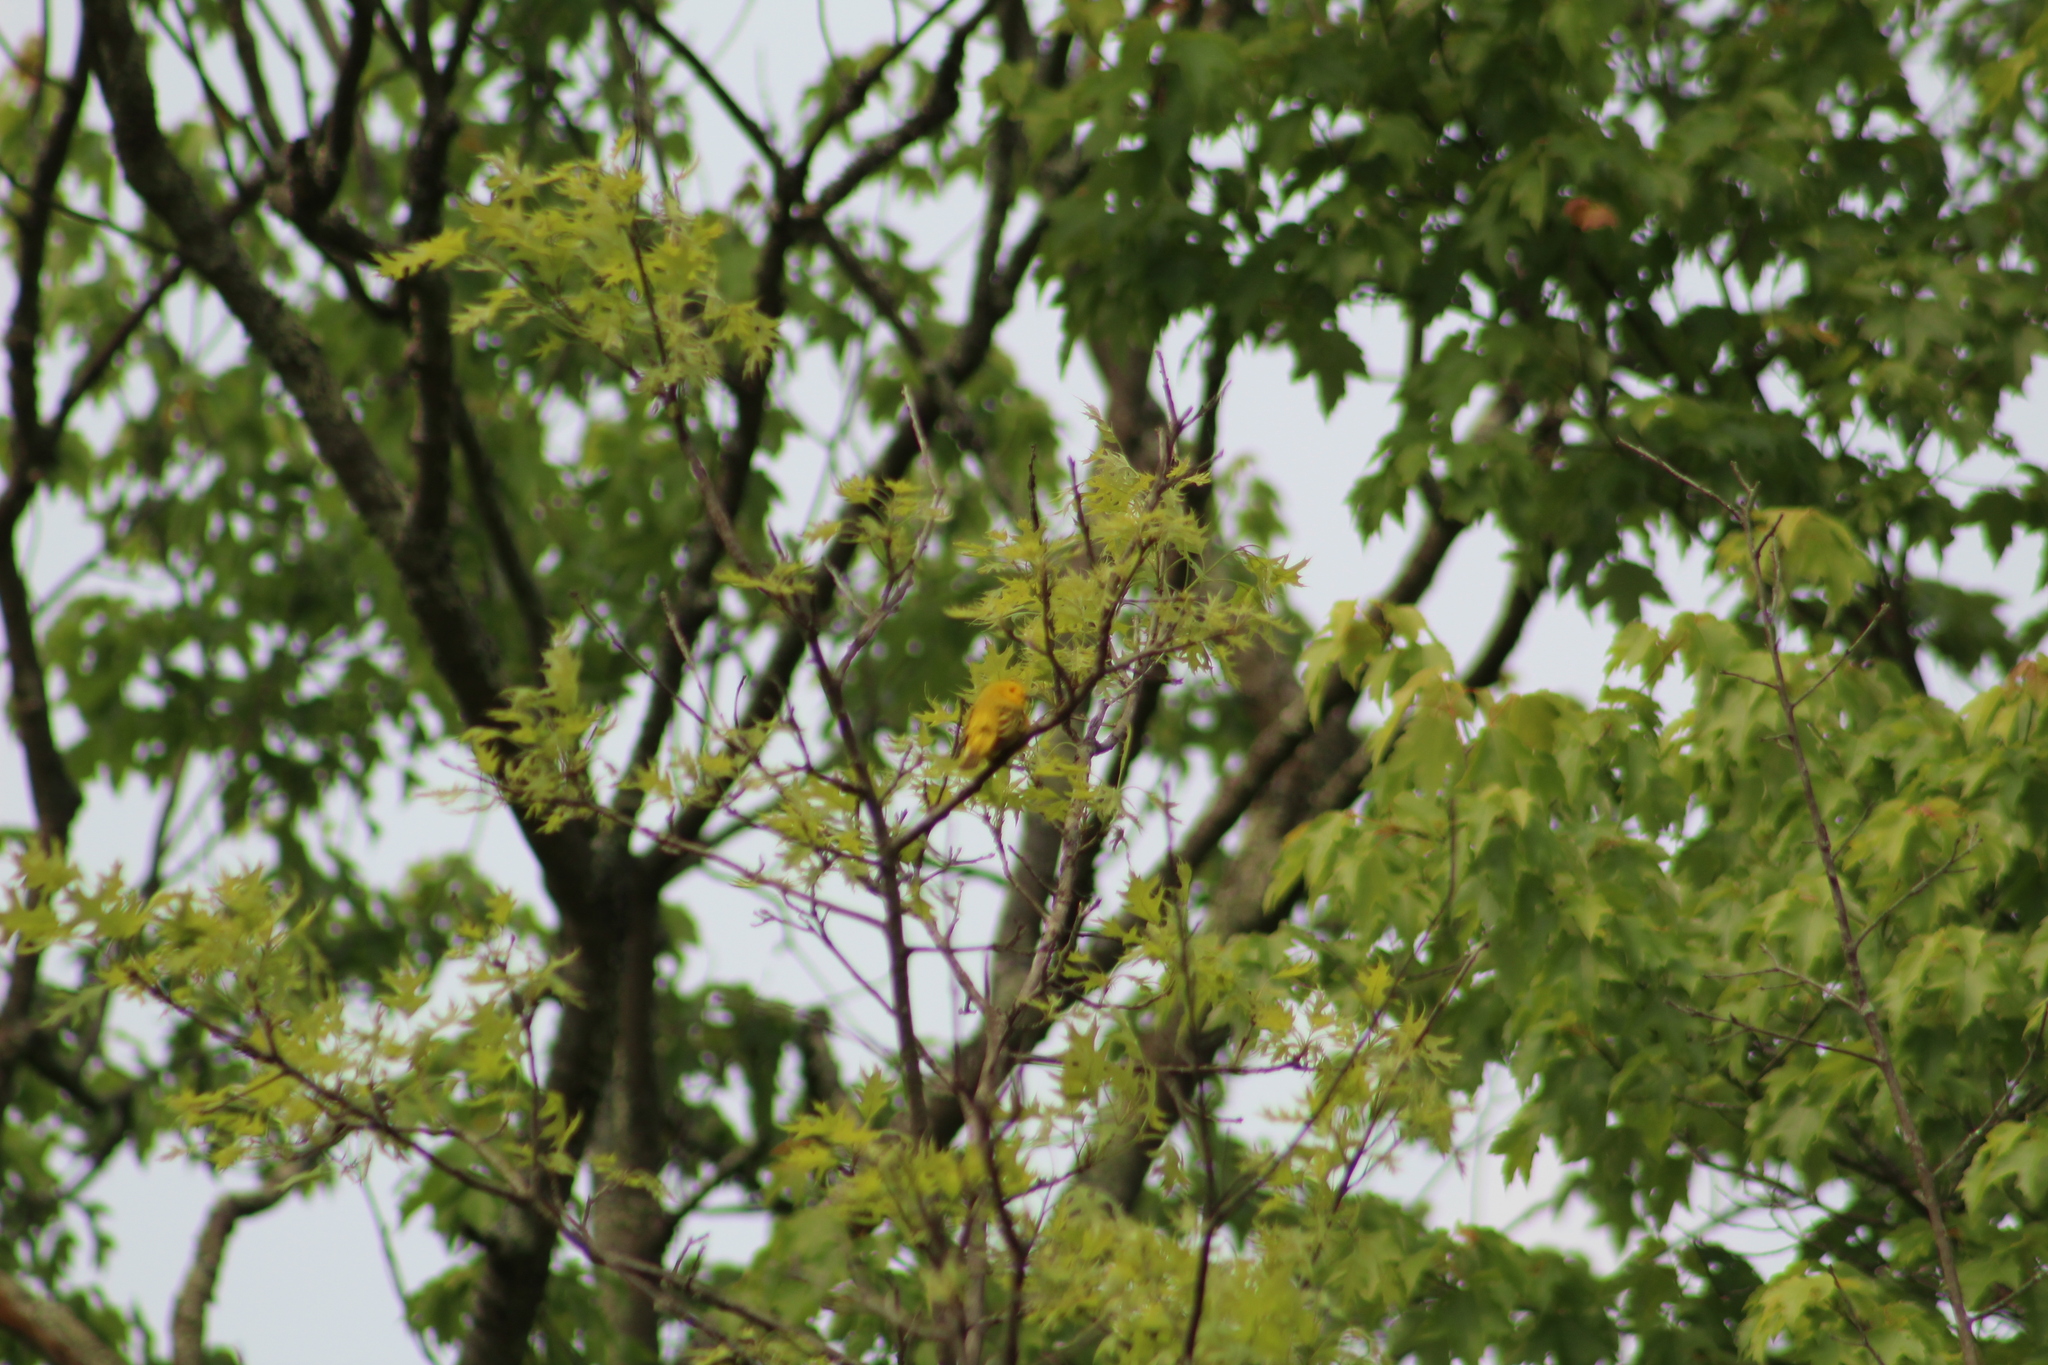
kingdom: Animalia
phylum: Chordata
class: Aves
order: Passeriformes
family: Parulidae
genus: Setophaga
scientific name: Setophaga petechia
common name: Yellow warbler
